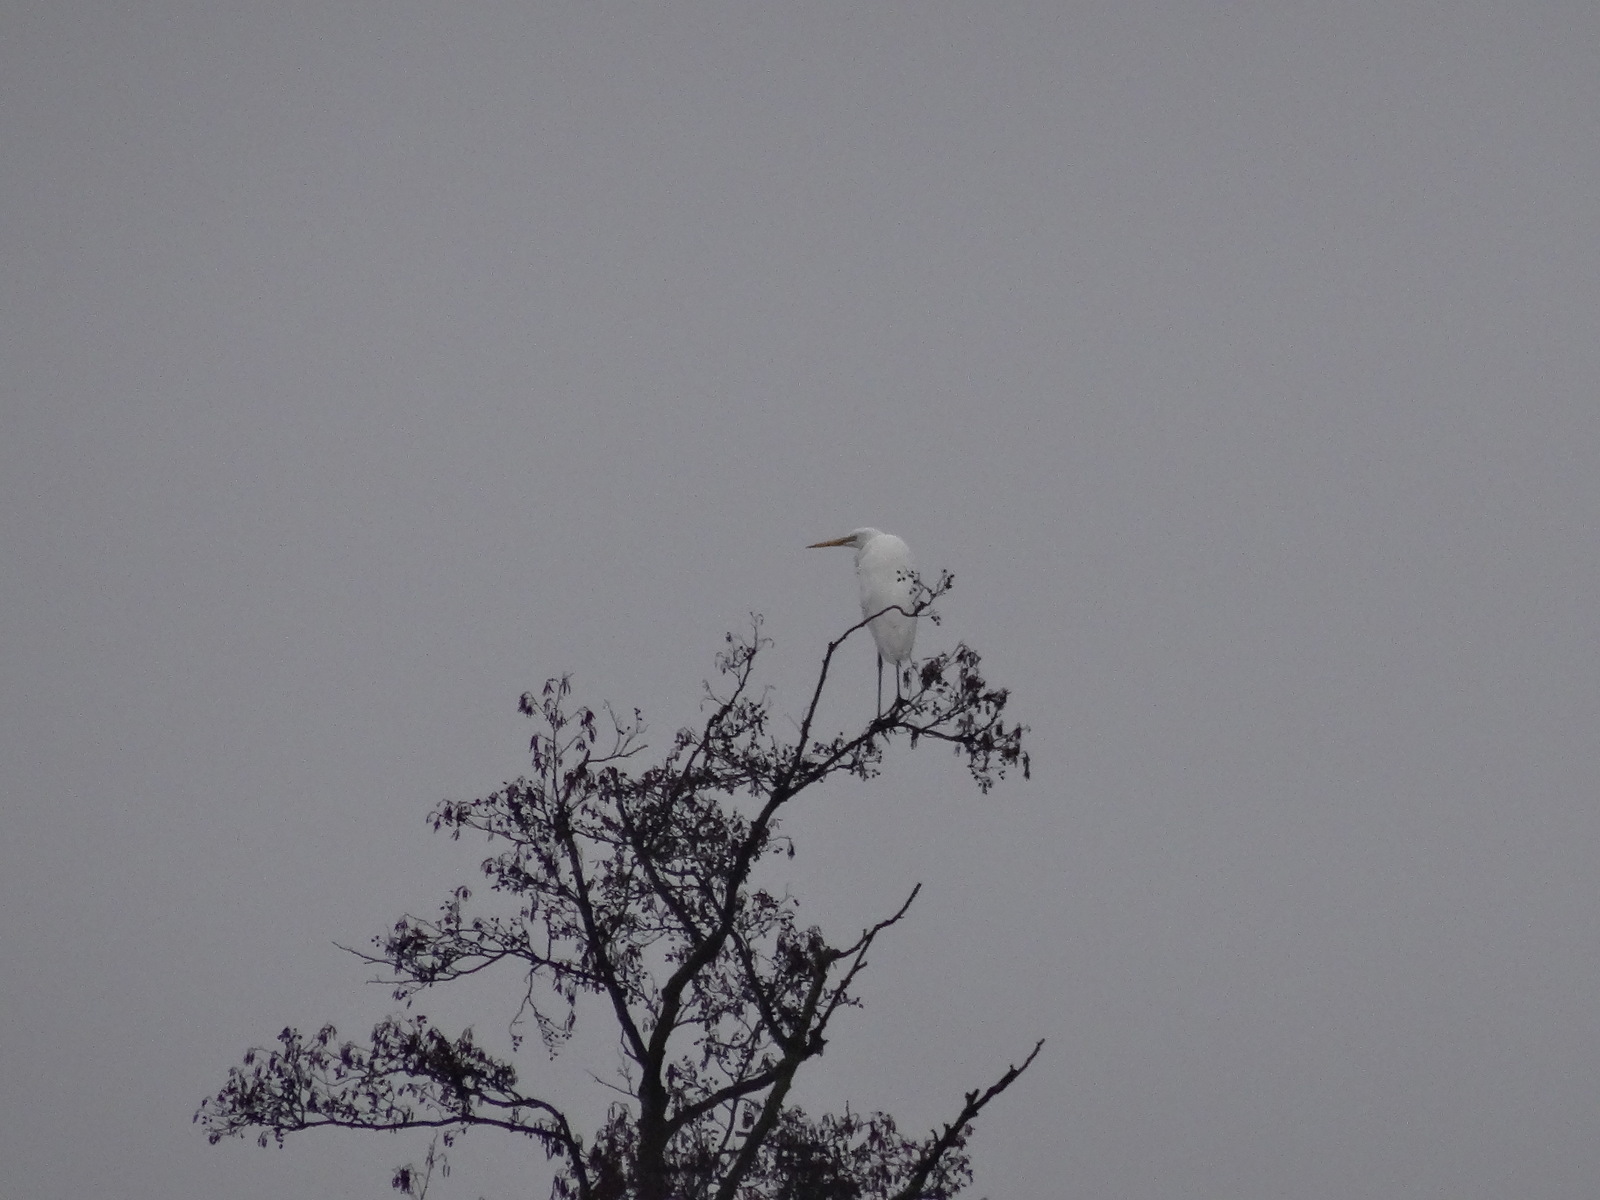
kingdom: Animalia
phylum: Chordata
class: Aves
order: Pelecaniformes
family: Ardeidae
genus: Ardea
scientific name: Ardea alba
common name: Great egret
